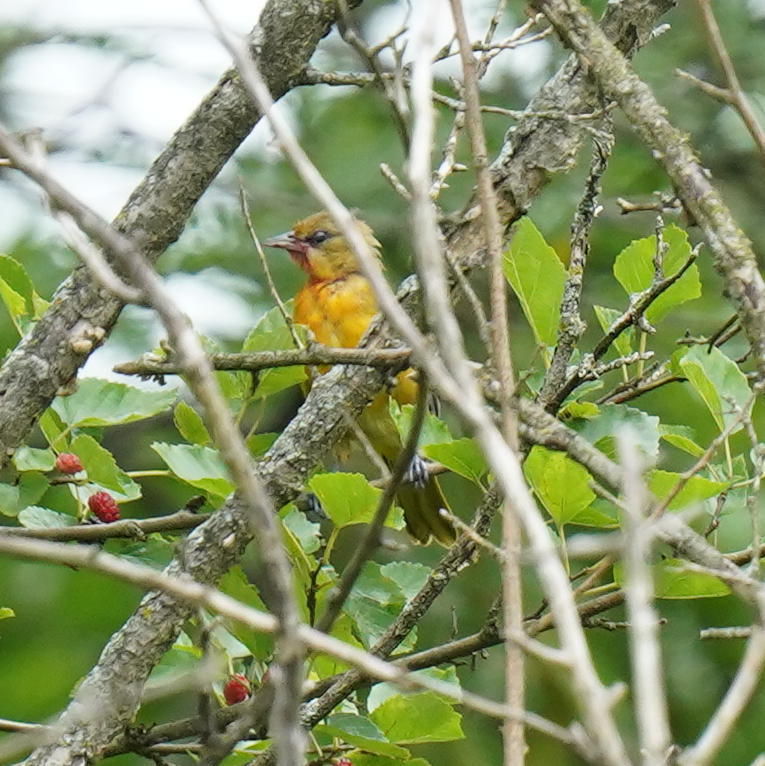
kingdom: Animalia
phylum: Chordata
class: Aves
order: Passeriformes
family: Icteridae
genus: Icterus
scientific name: Icterus galbula
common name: Baltimore oriole
